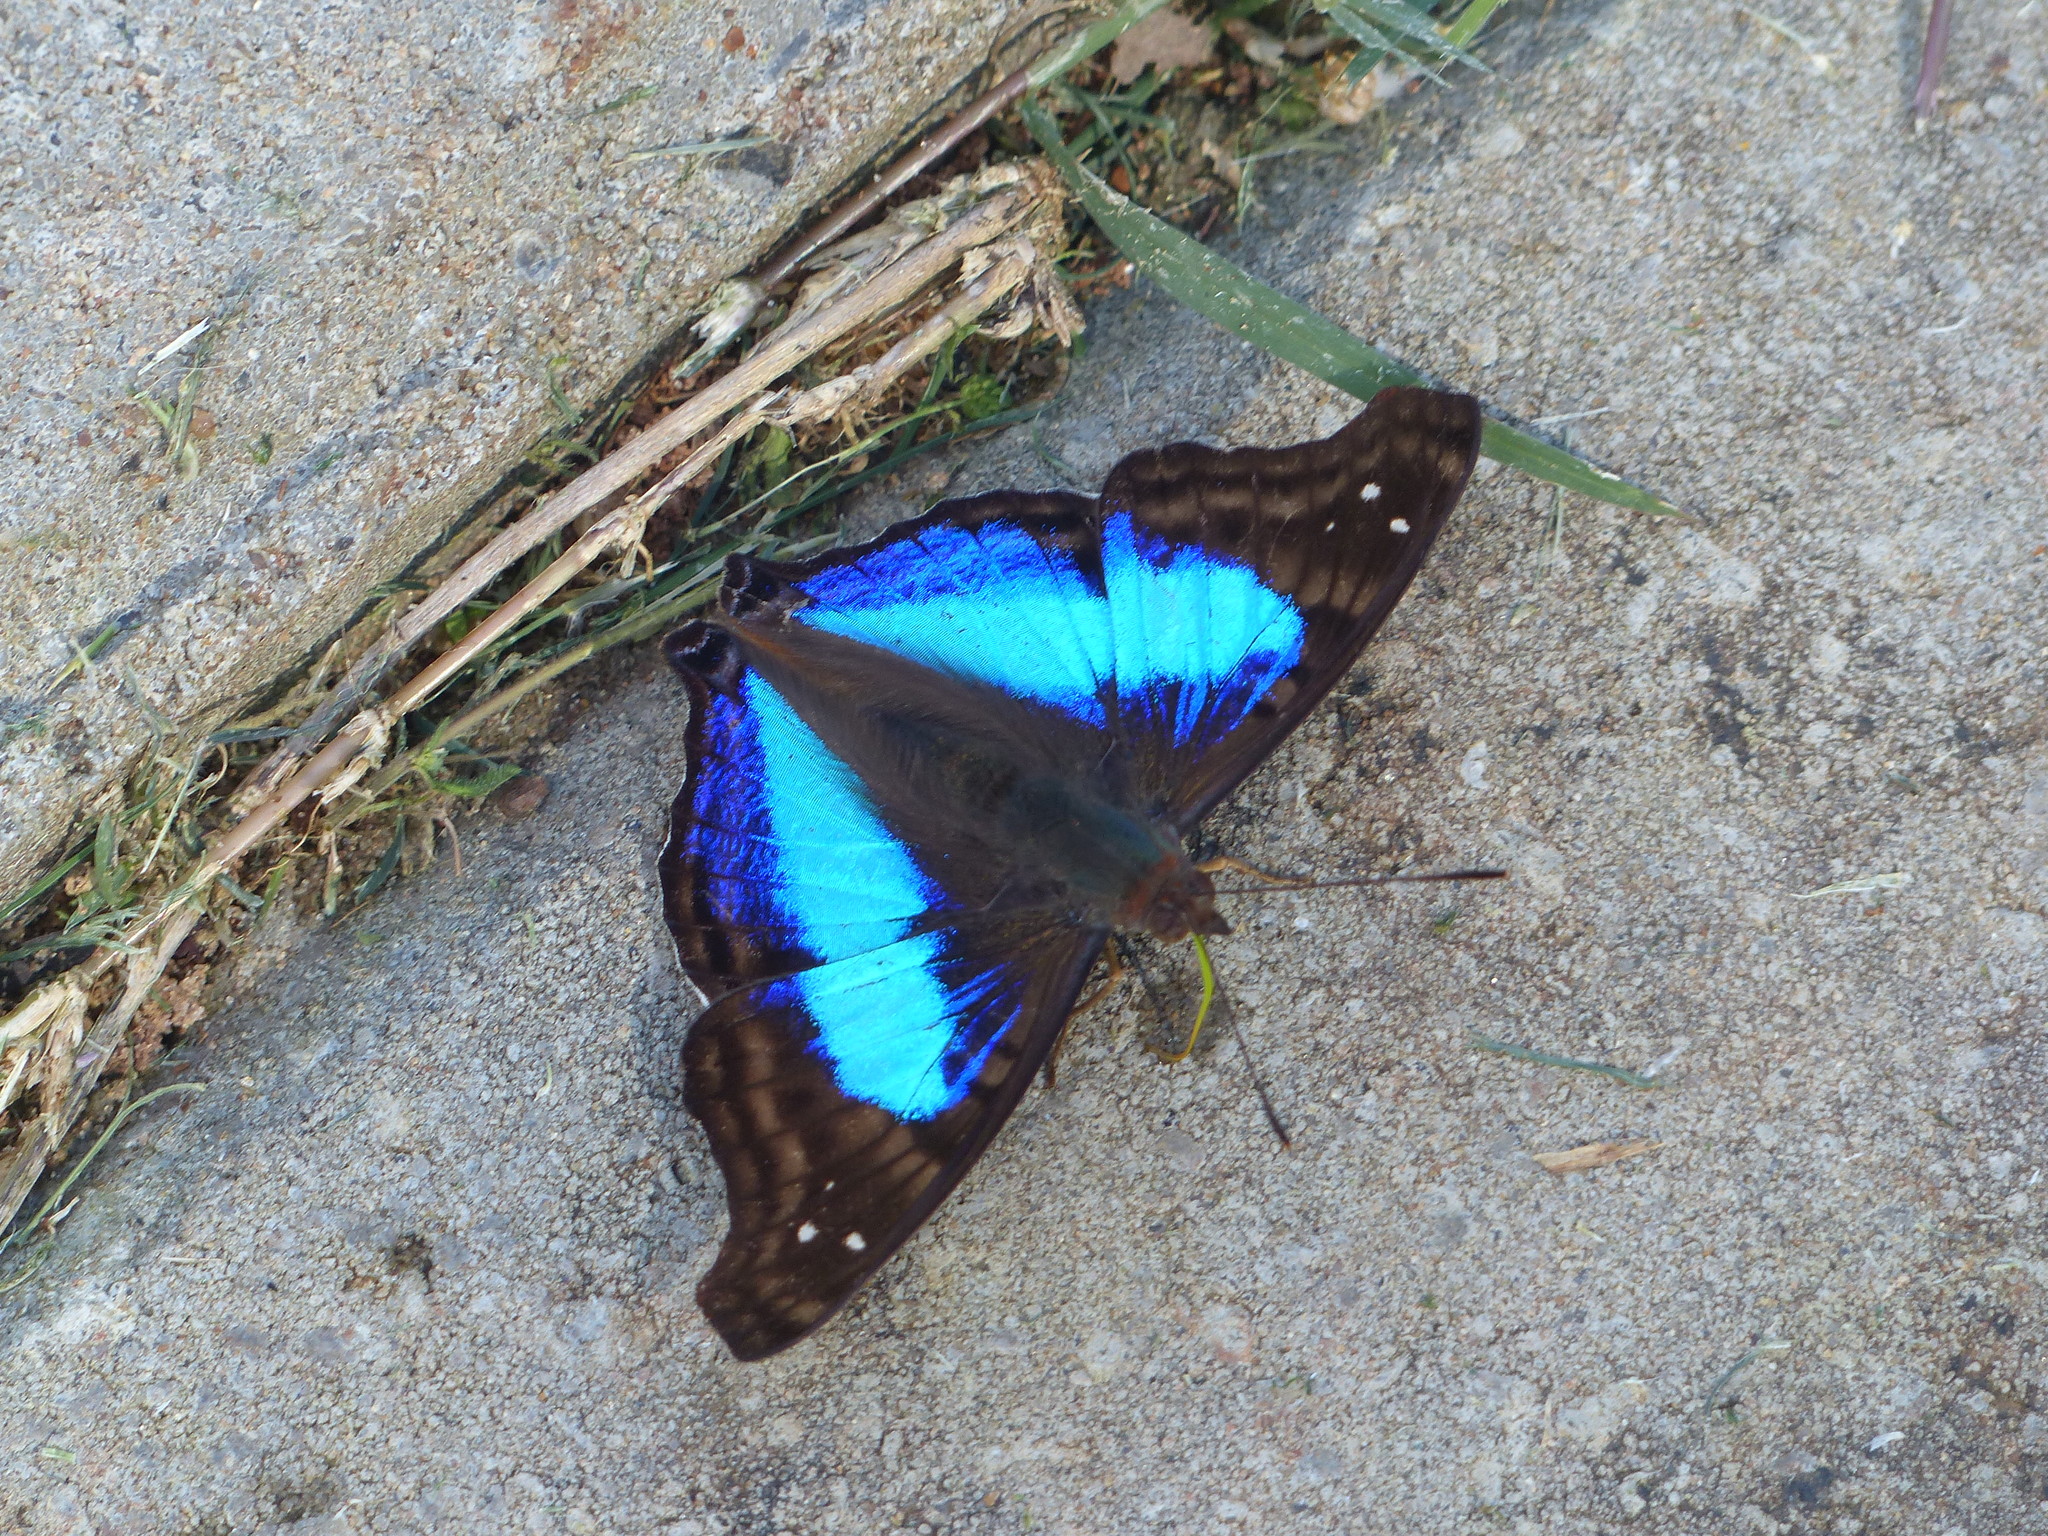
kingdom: Animalia
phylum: Arthropoda
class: Insecta
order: Lepidoptera
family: Nymphalidae
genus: Doxocopa
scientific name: Doxocopa laurentia
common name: Turquoise emperor
